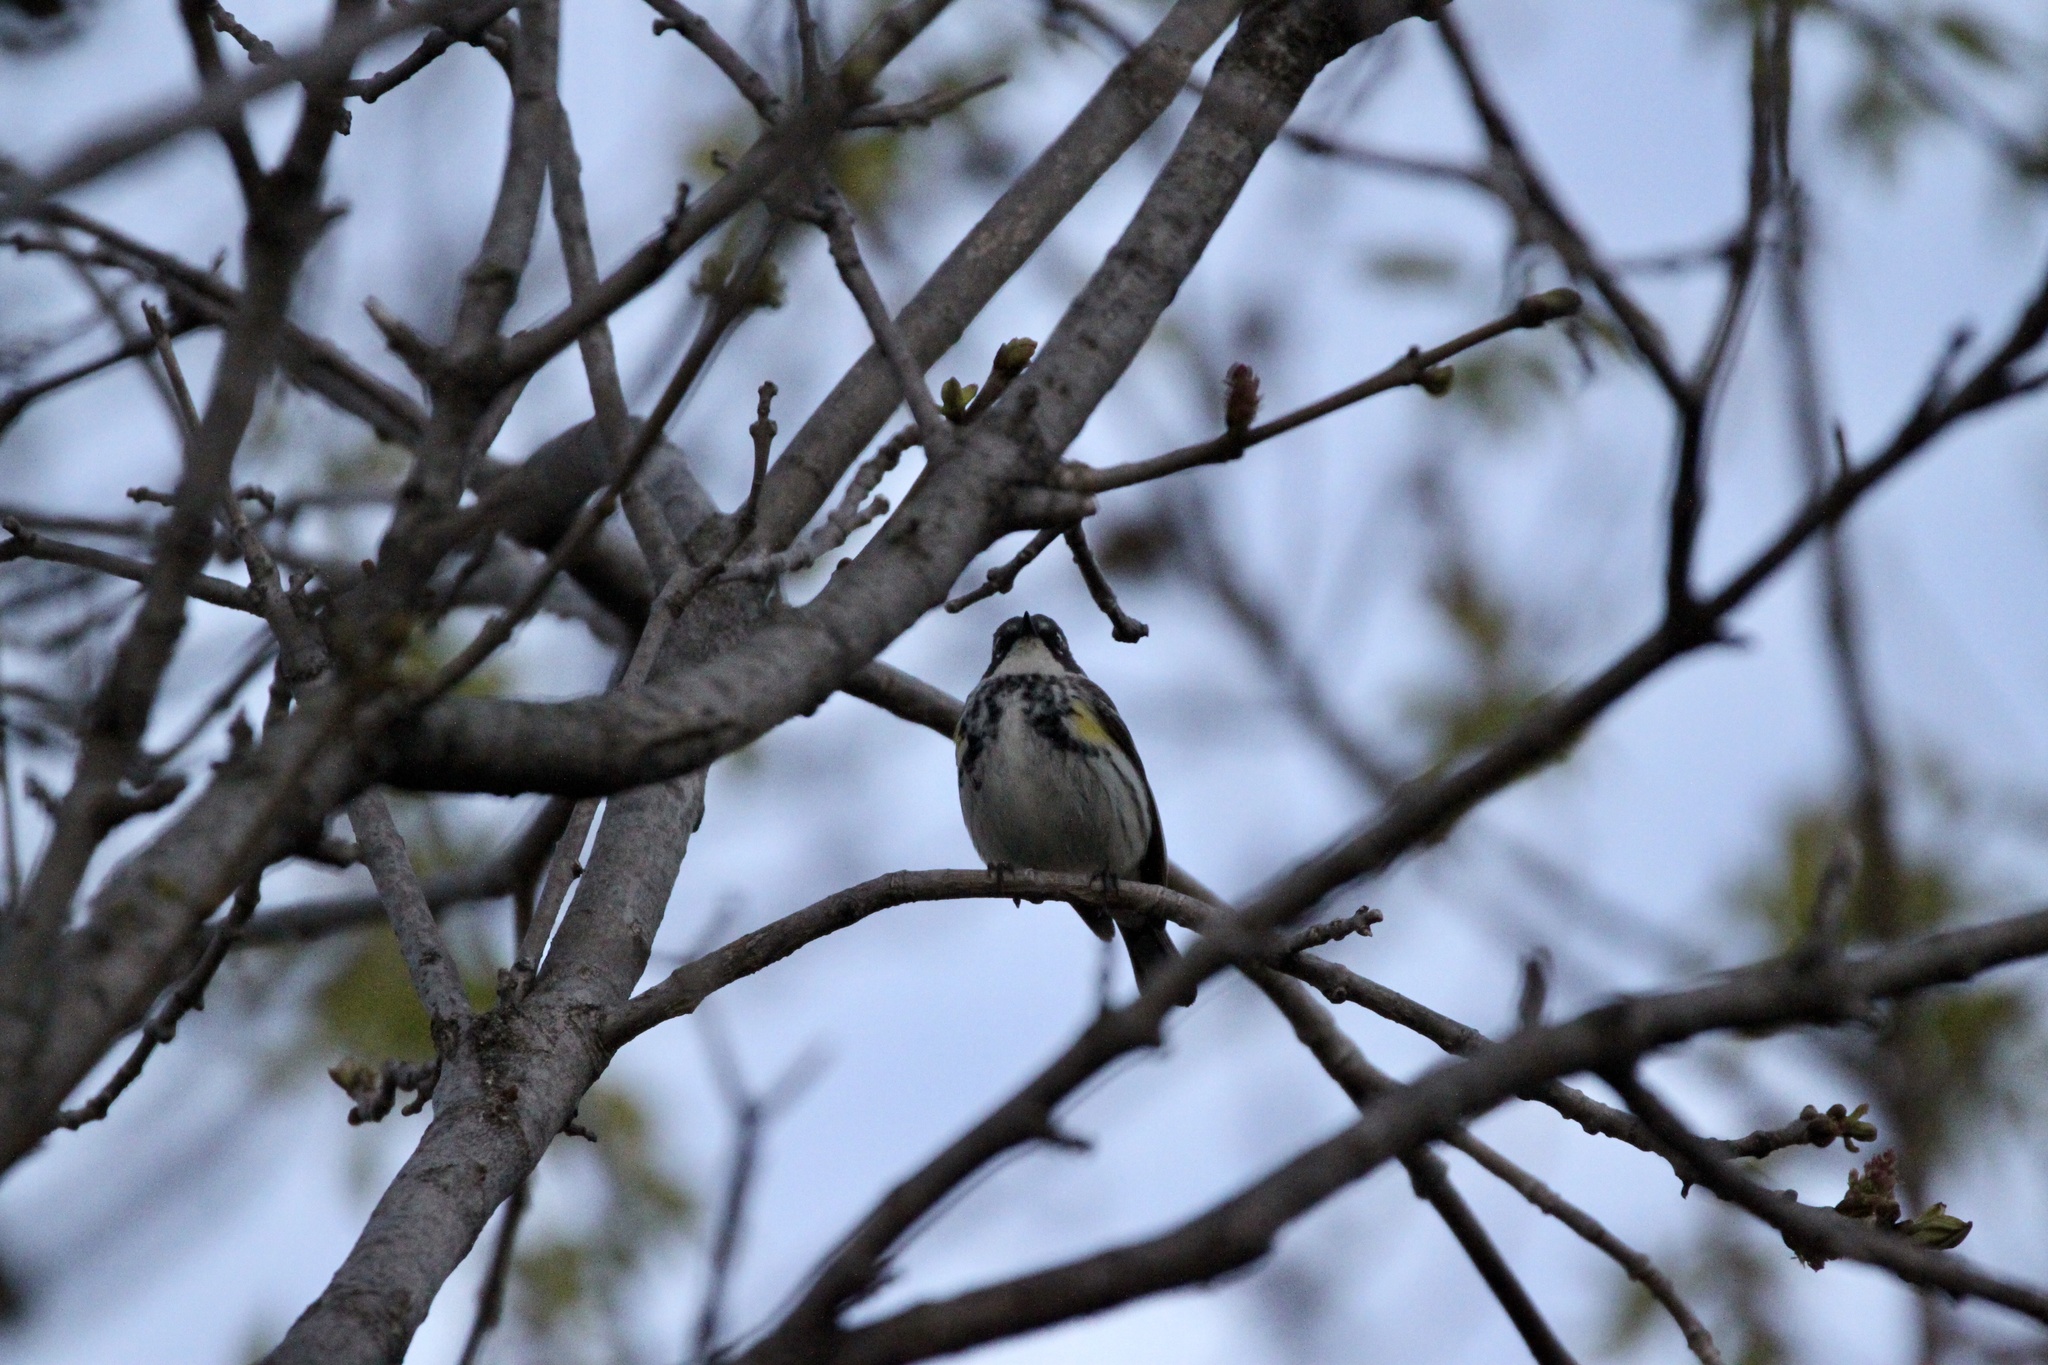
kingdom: Animalia
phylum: Chordata
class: Aves
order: Passeriformes
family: Parulidae
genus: Setophaga
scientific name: Setophaga coronata
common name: Myrtle warbler
